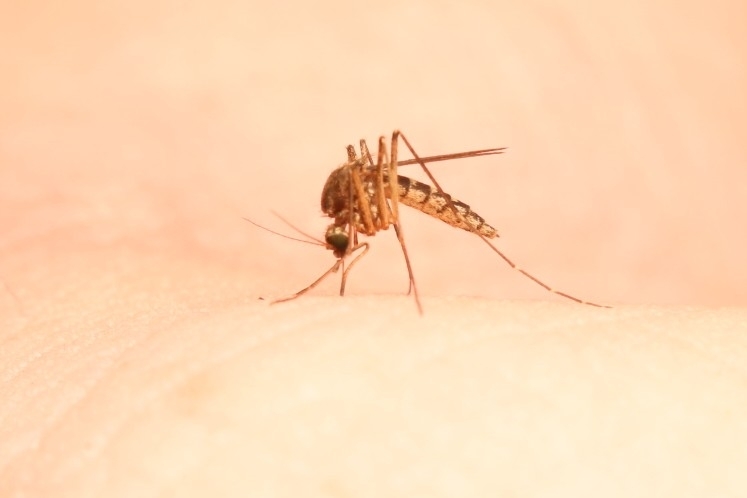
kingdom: Animalia
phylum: Arthropoda
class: Insecta
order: Diptera
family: Culicidae
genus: Aedes
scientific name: Aedes vexans
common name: Inland floodwater mosquito
